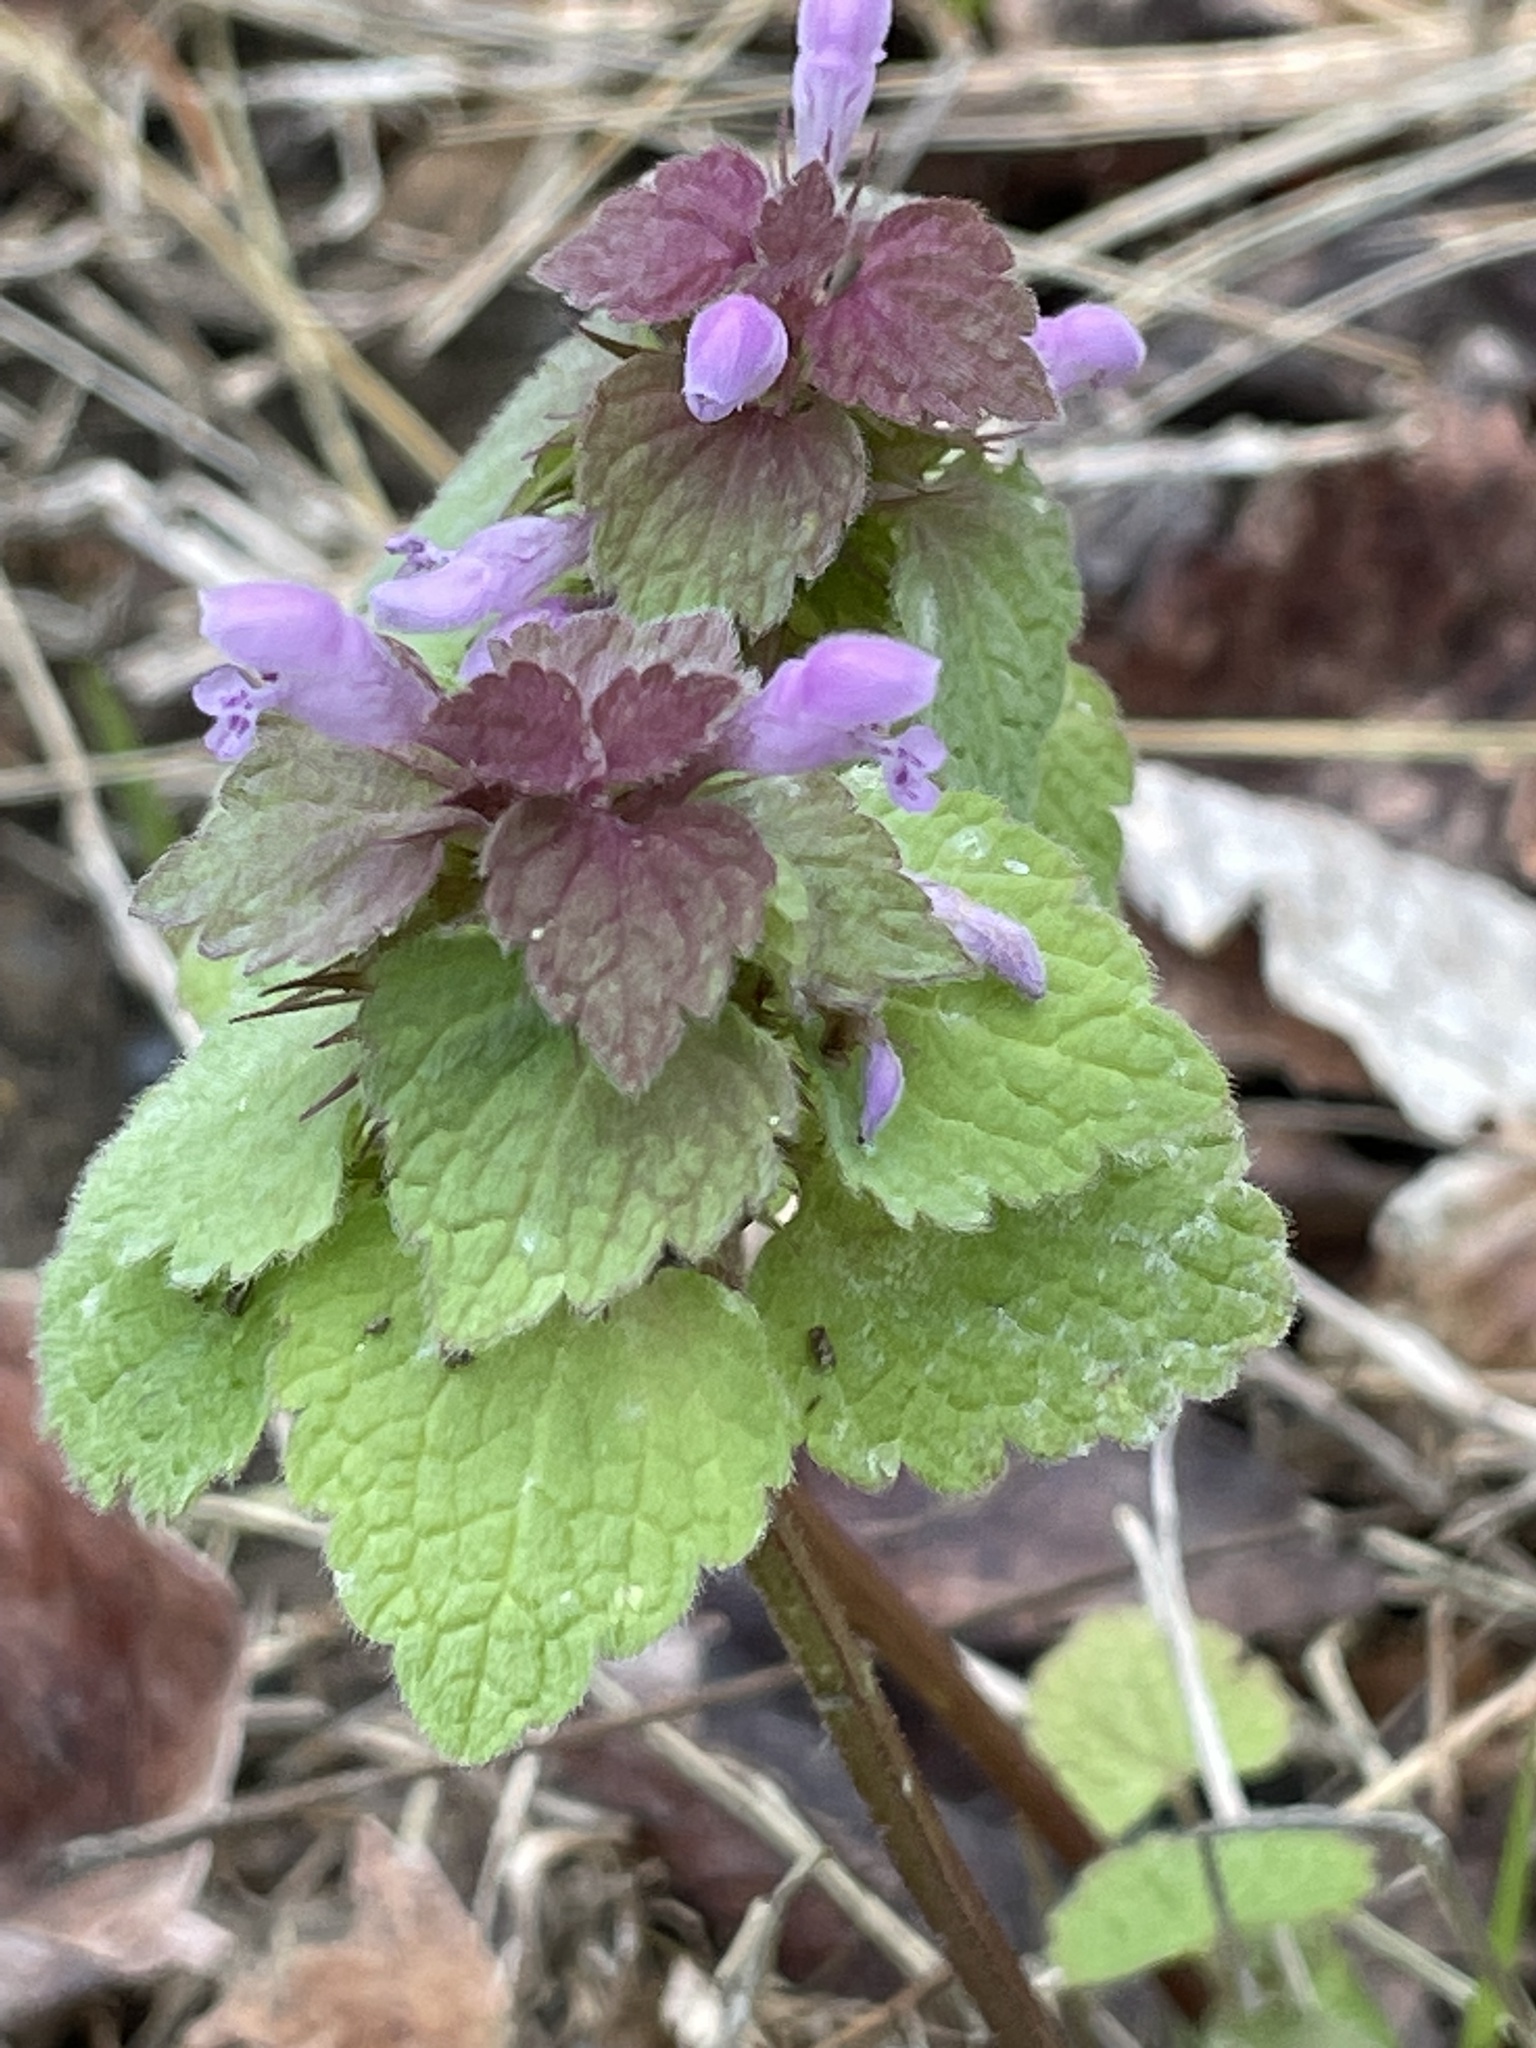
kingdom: Plantae
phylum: Tracheophyta
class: Magnoliopsida
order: Lamiales
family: Lamiaceae
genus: Lamium
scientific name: Lamium purpureum
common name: Red dead-nettle
